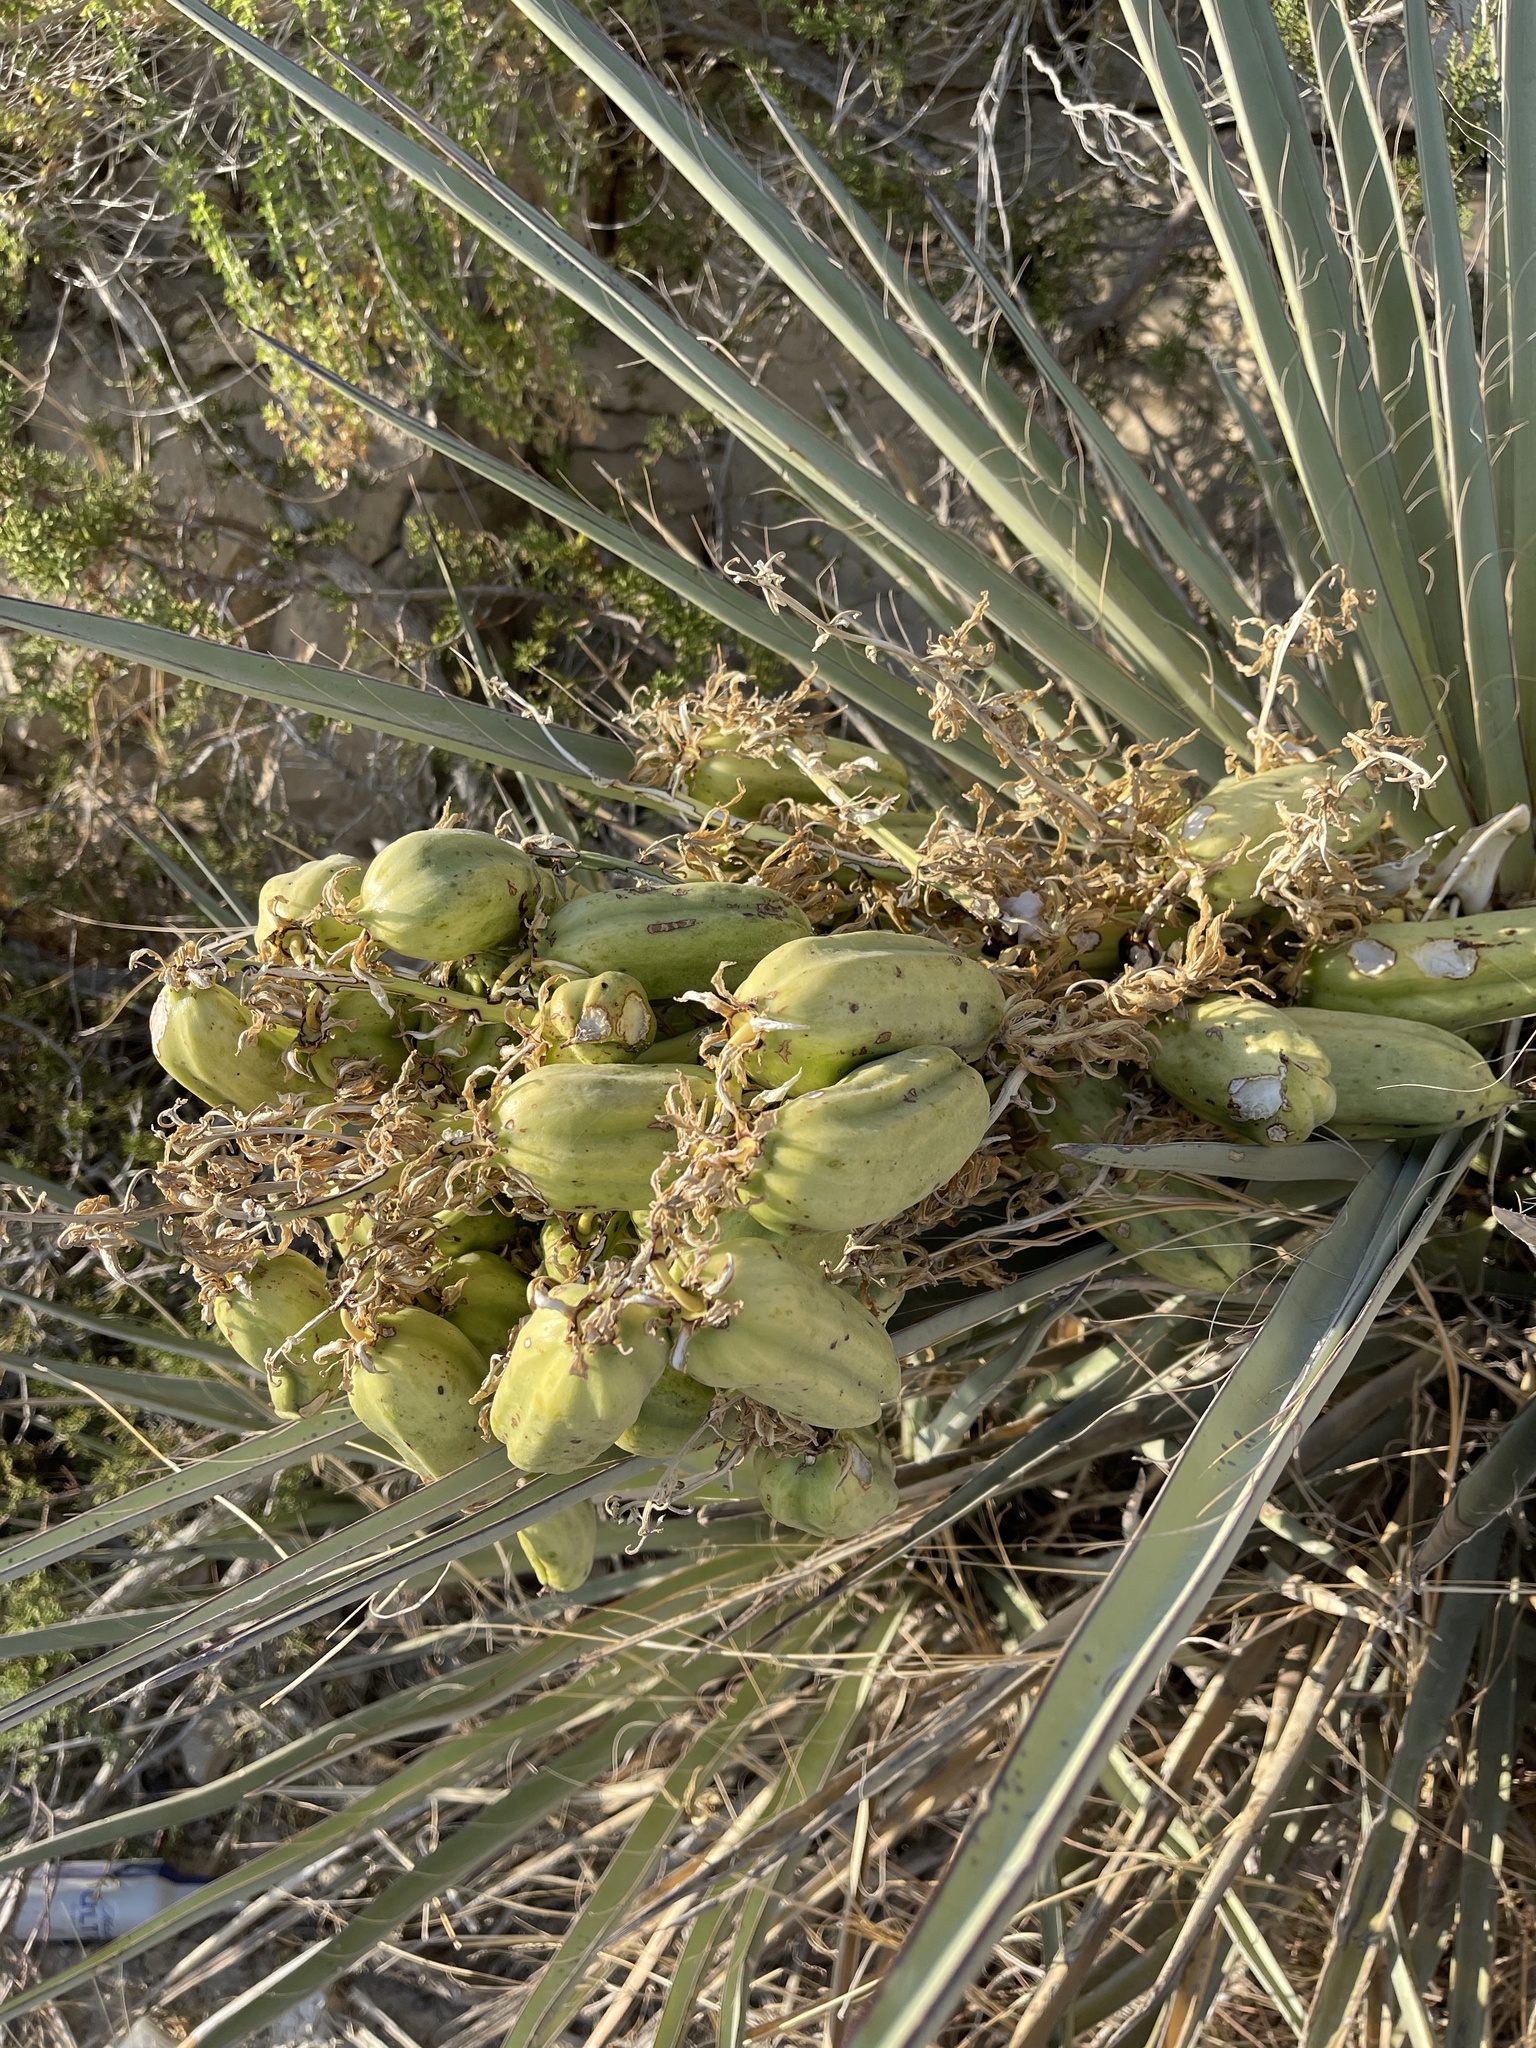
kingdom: Plantae
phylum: Tracheophyta
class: Liliopsida
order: Asparagales
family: Asparagaceae
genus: Yucca
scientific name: Yucca treculiana
